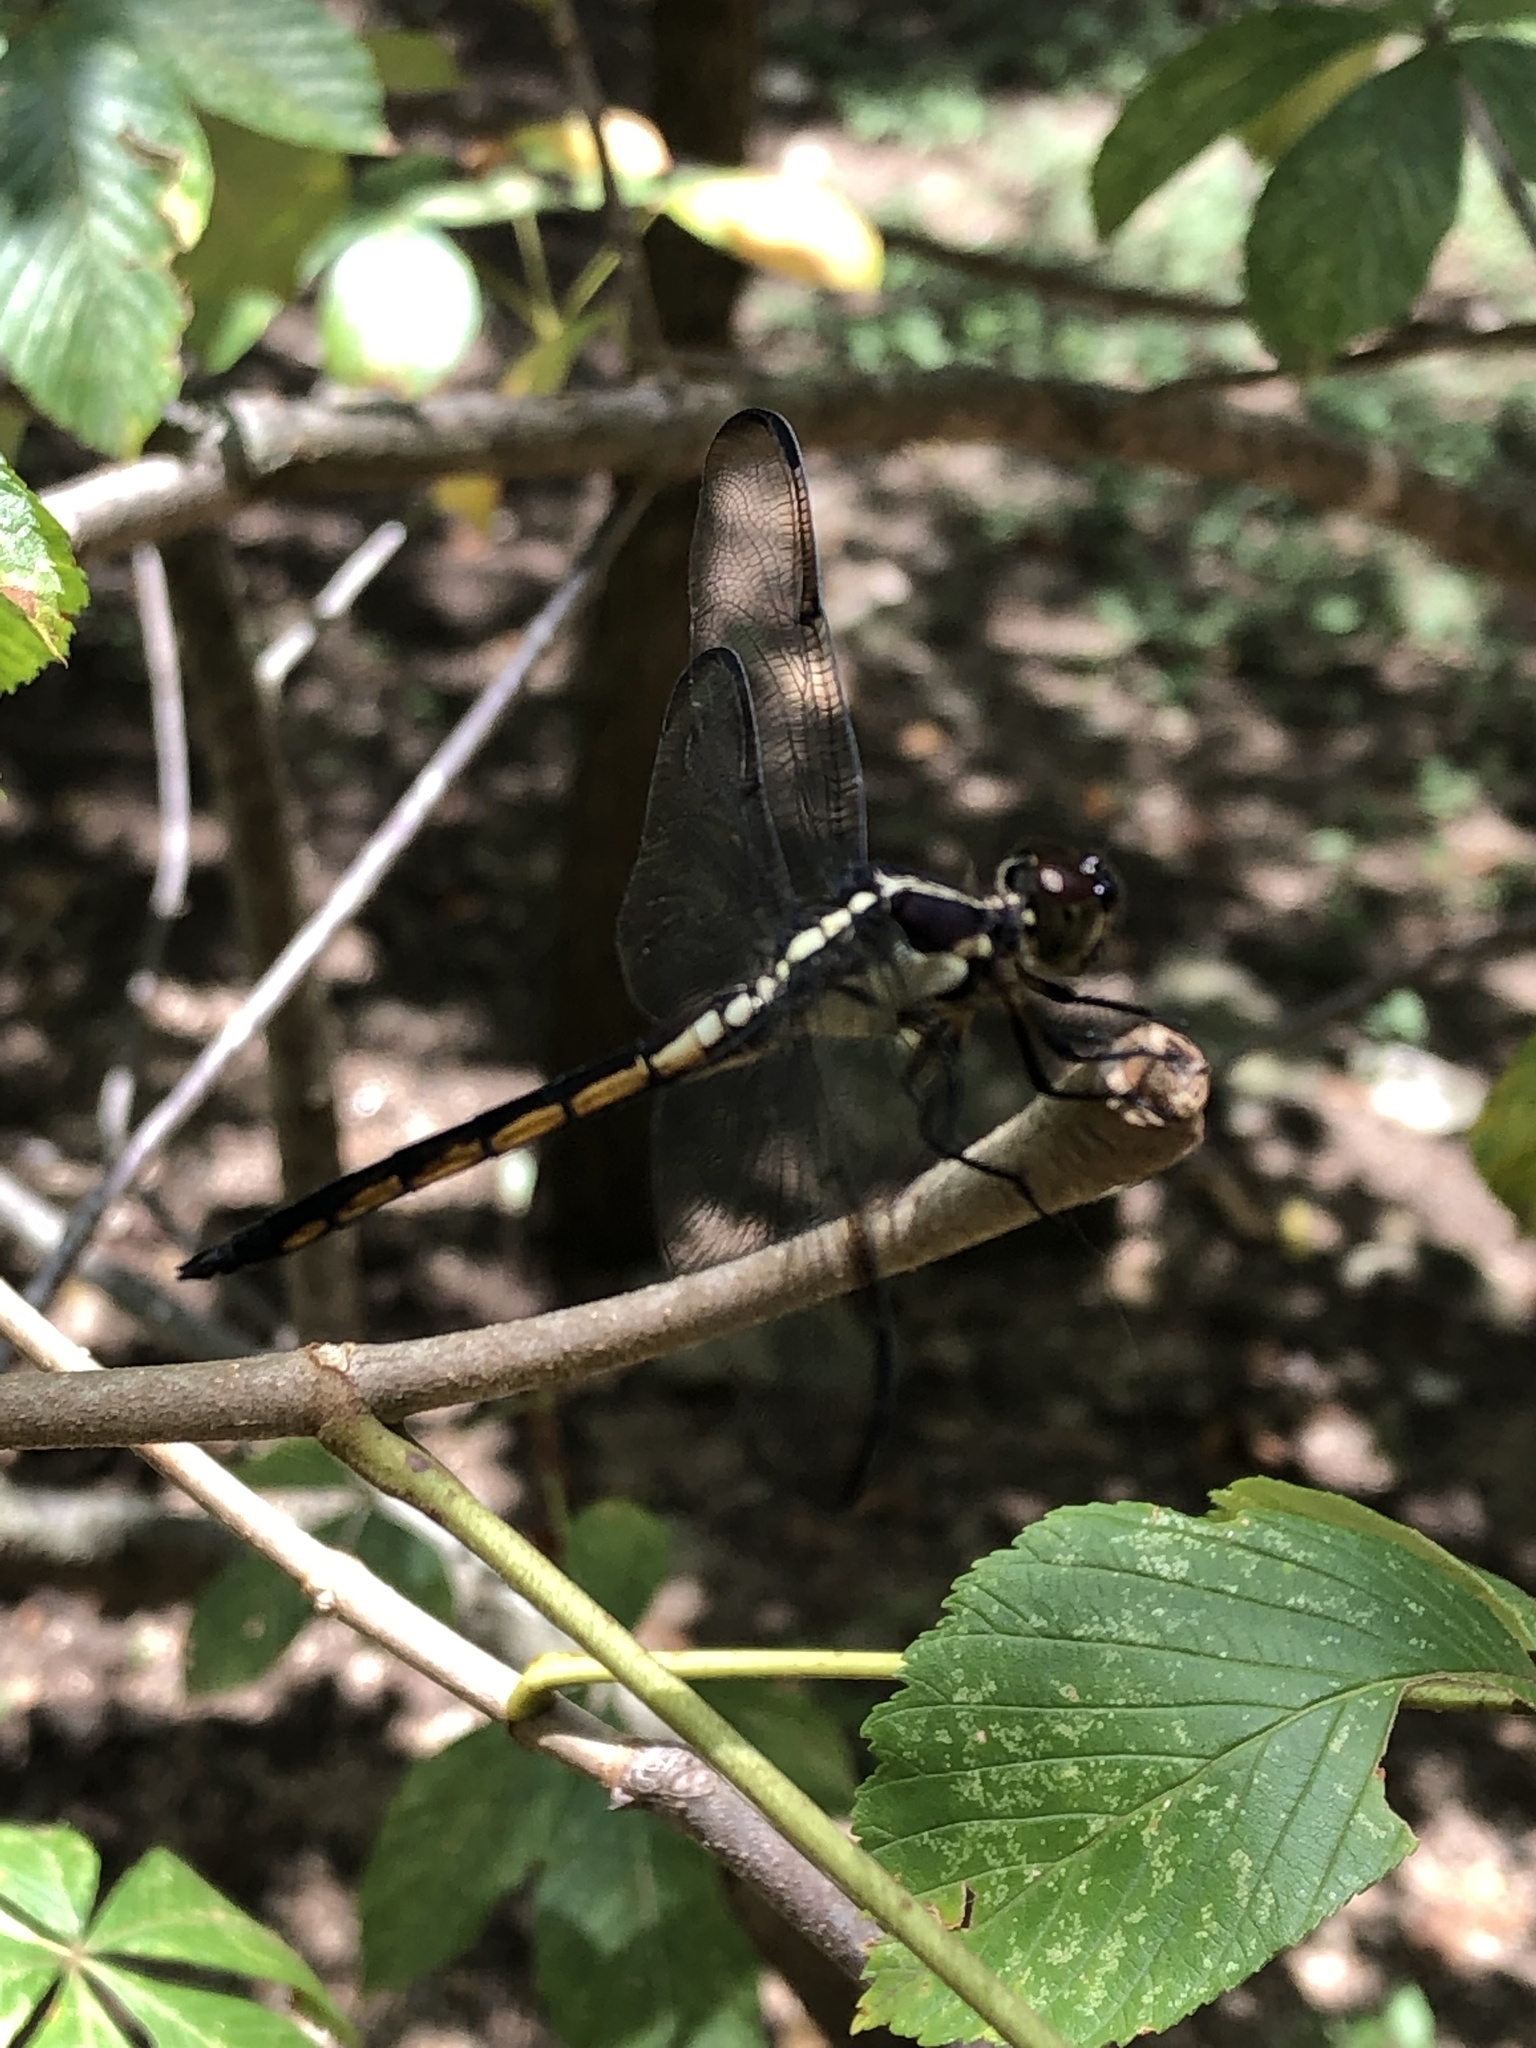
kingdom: Animalia
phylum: Arthropoda
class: Insecta
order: Odonata
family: Libellulidae
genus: Libellula
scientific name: Libellula incesta
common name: Slaty skimmer
